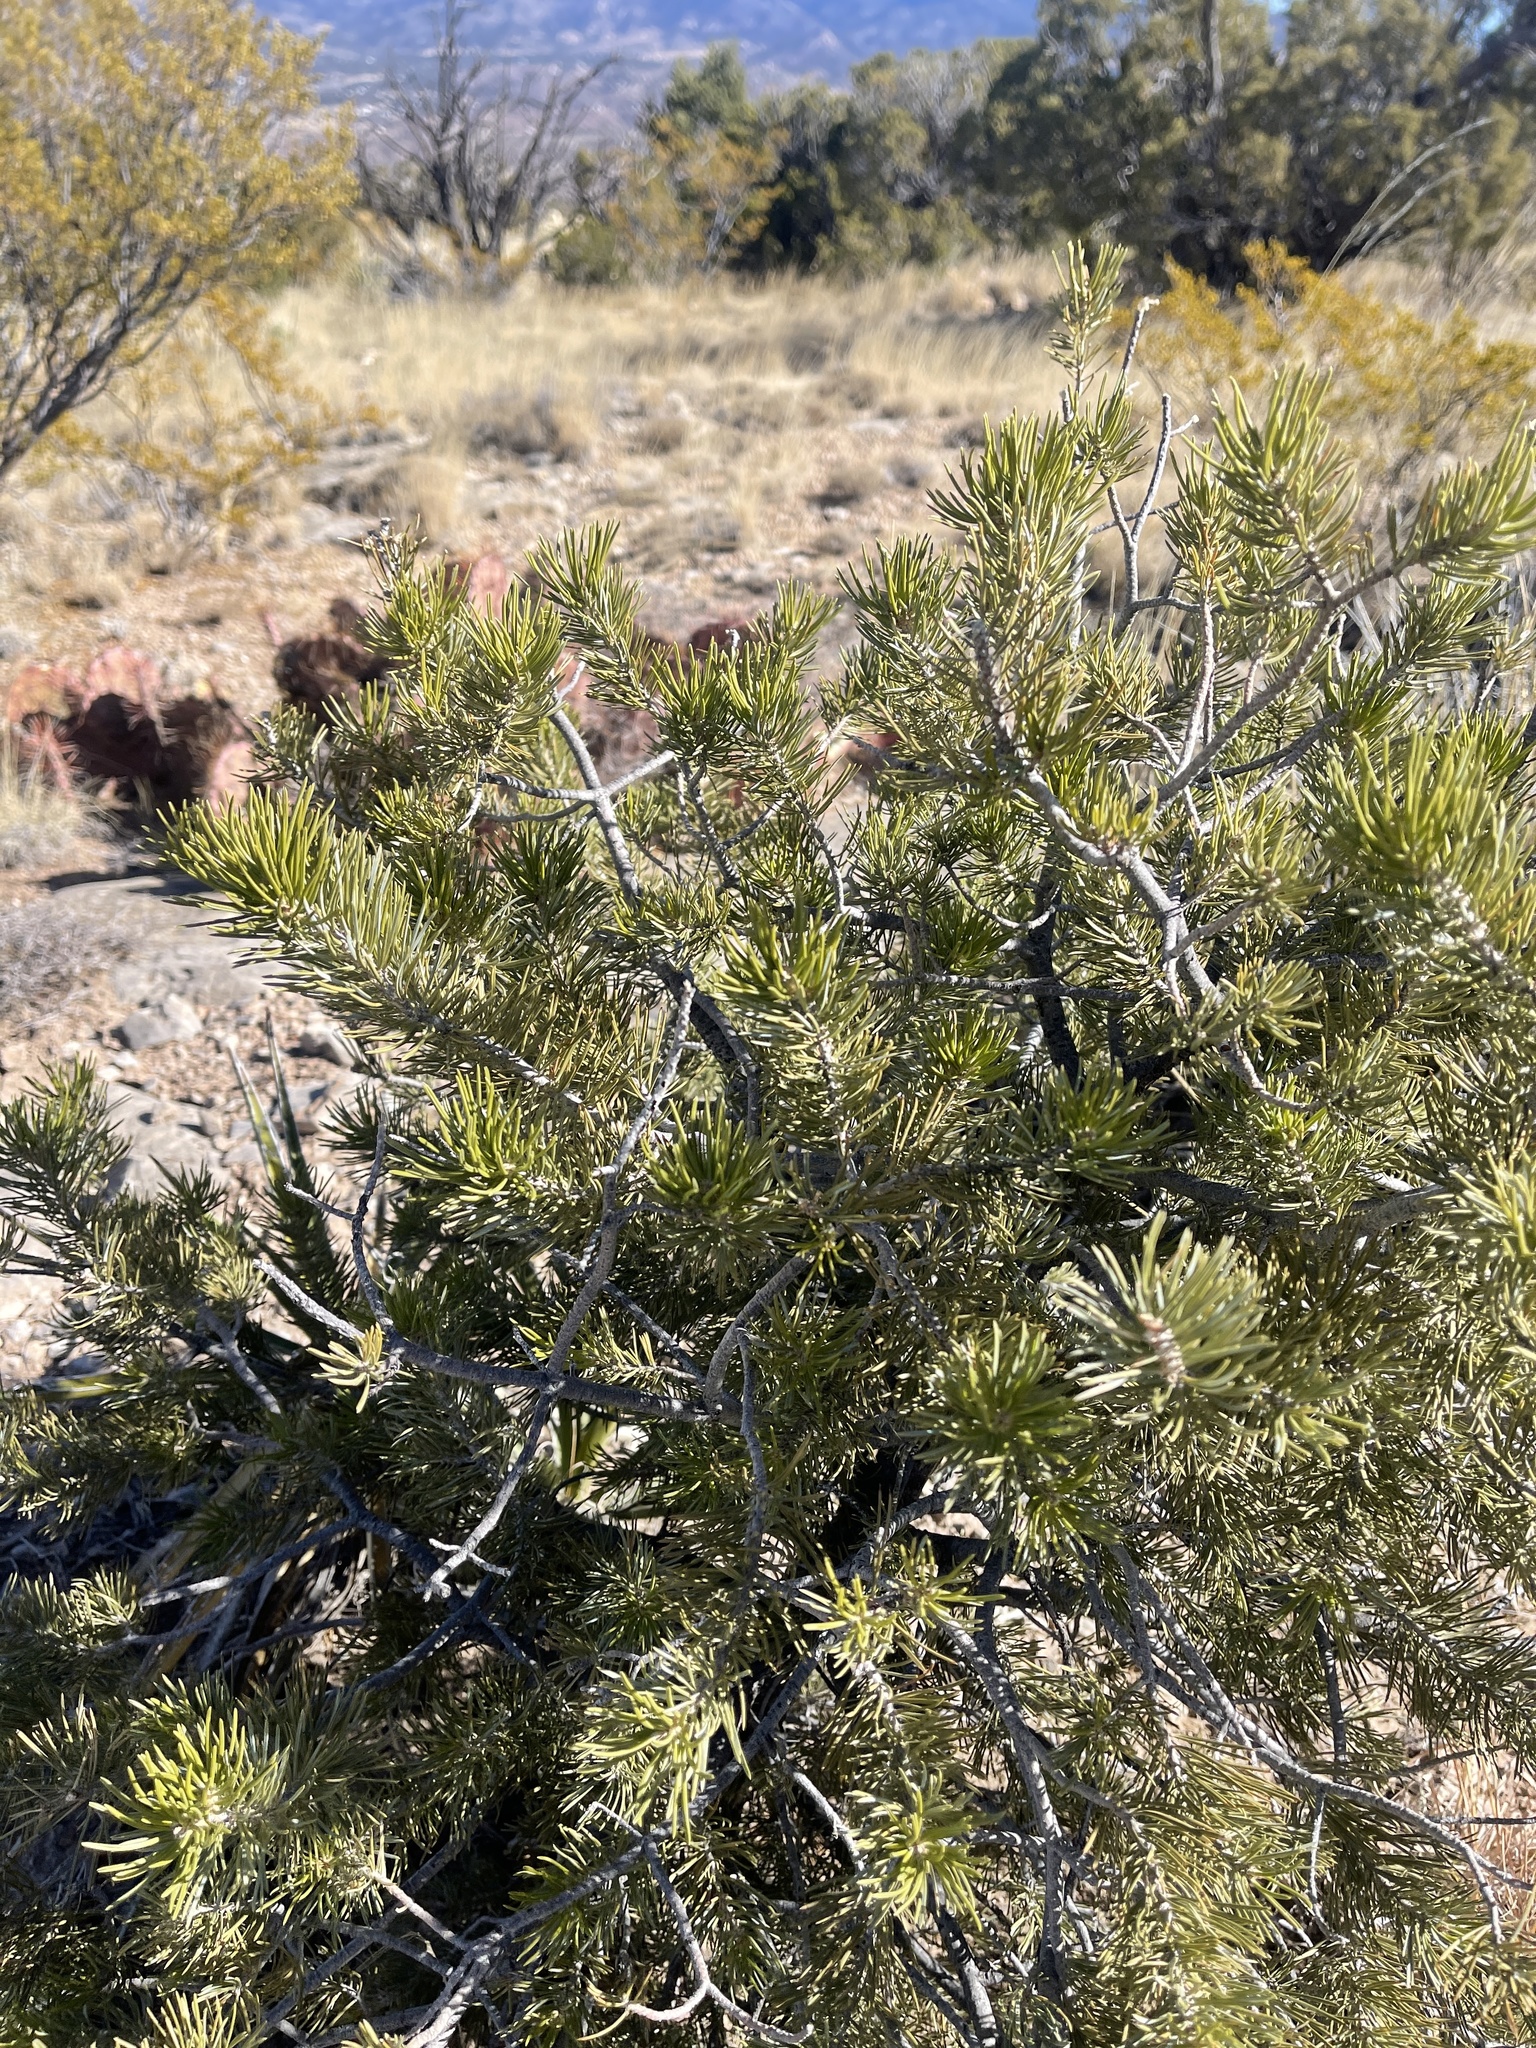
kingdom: Plantae
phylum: Tracheophyta
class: Pinopsida
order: Pinales
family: Pinaceae
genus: Pinus
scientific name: Pinus edulis
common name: Colorado pinyon
